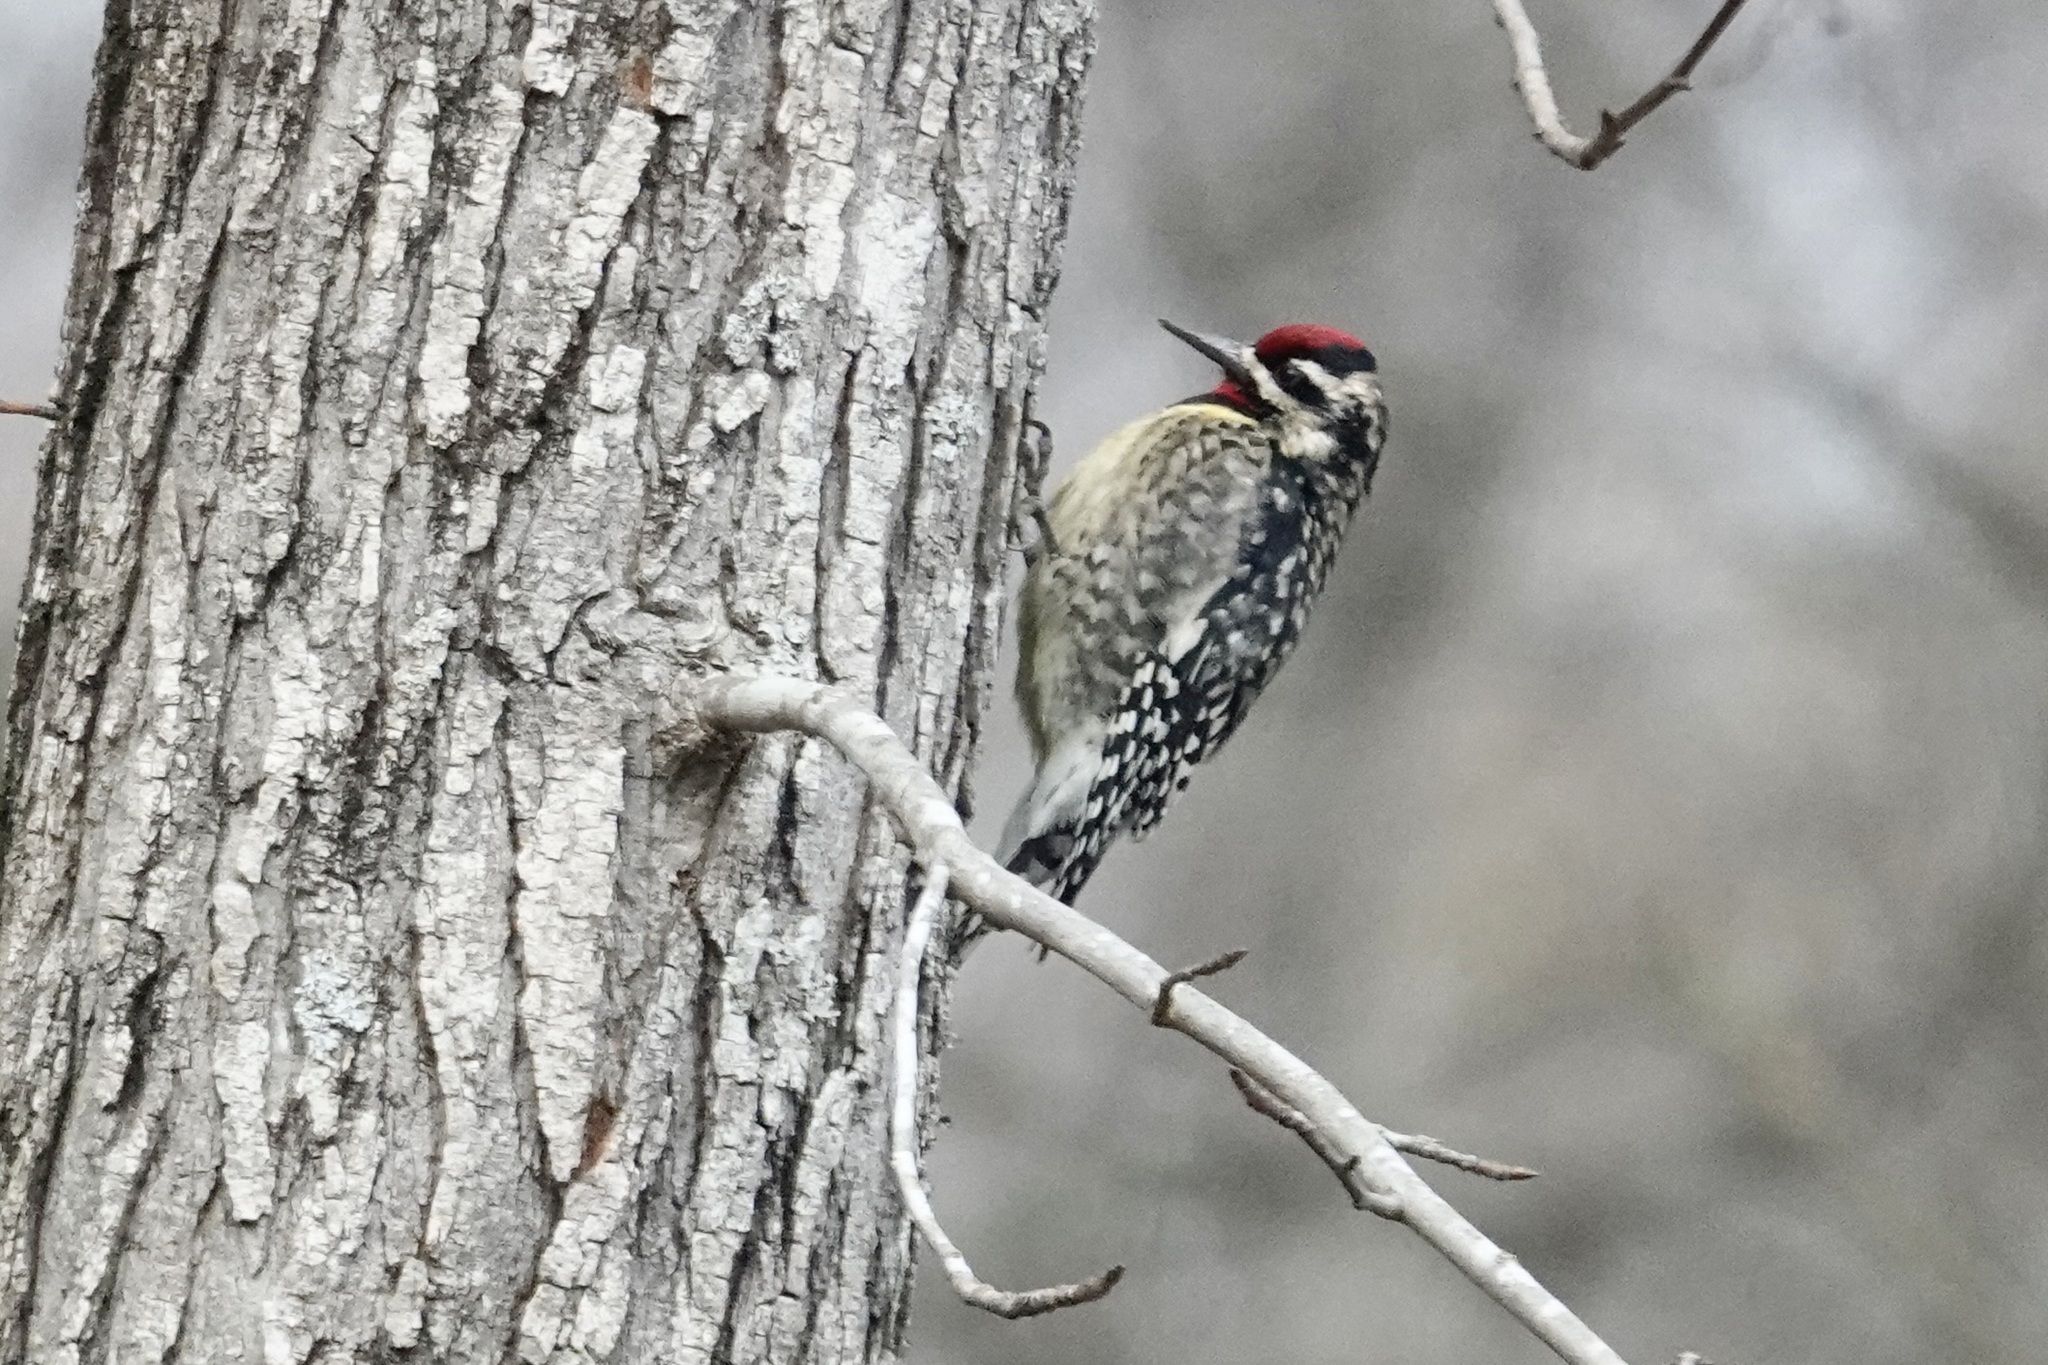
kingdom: Animalia
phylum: Chordata
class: Aves
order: Piciformes
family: Picidae
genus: Sphyrapicus
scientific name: Sphyrapicus varius
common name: Yellow-bellied sapsucker
